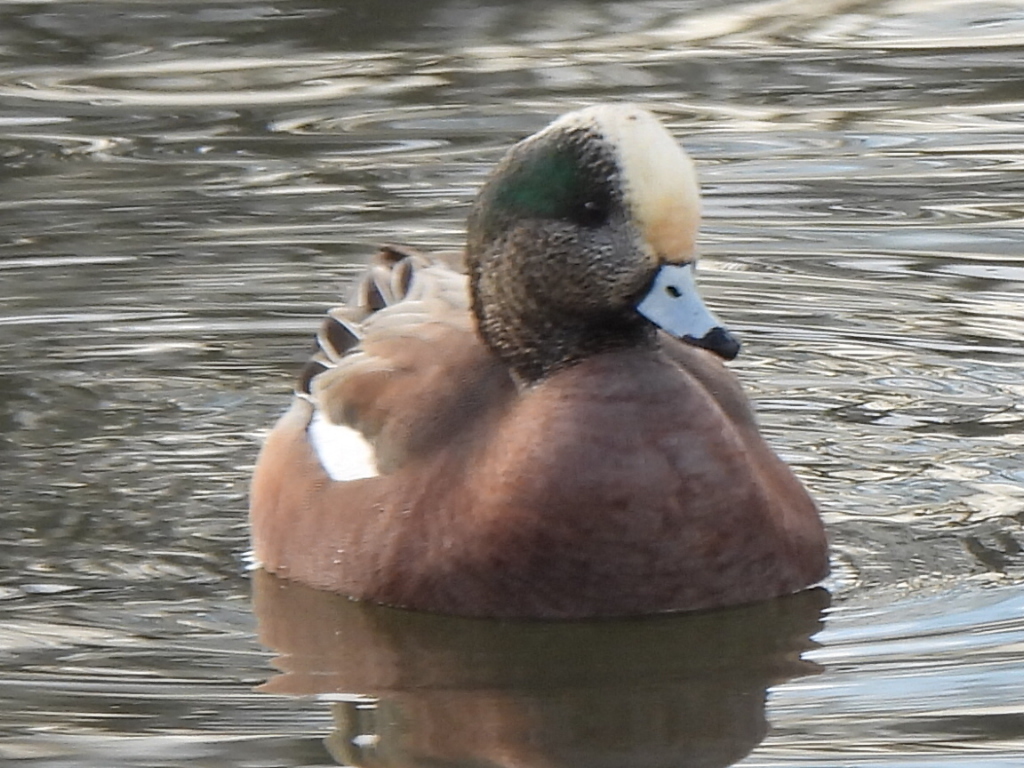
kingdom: Animalia
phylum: Chordata
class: Aves
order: Anseriformes
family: Anatidae
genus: Mareca
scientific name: Mareca americana
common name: American wigeon
